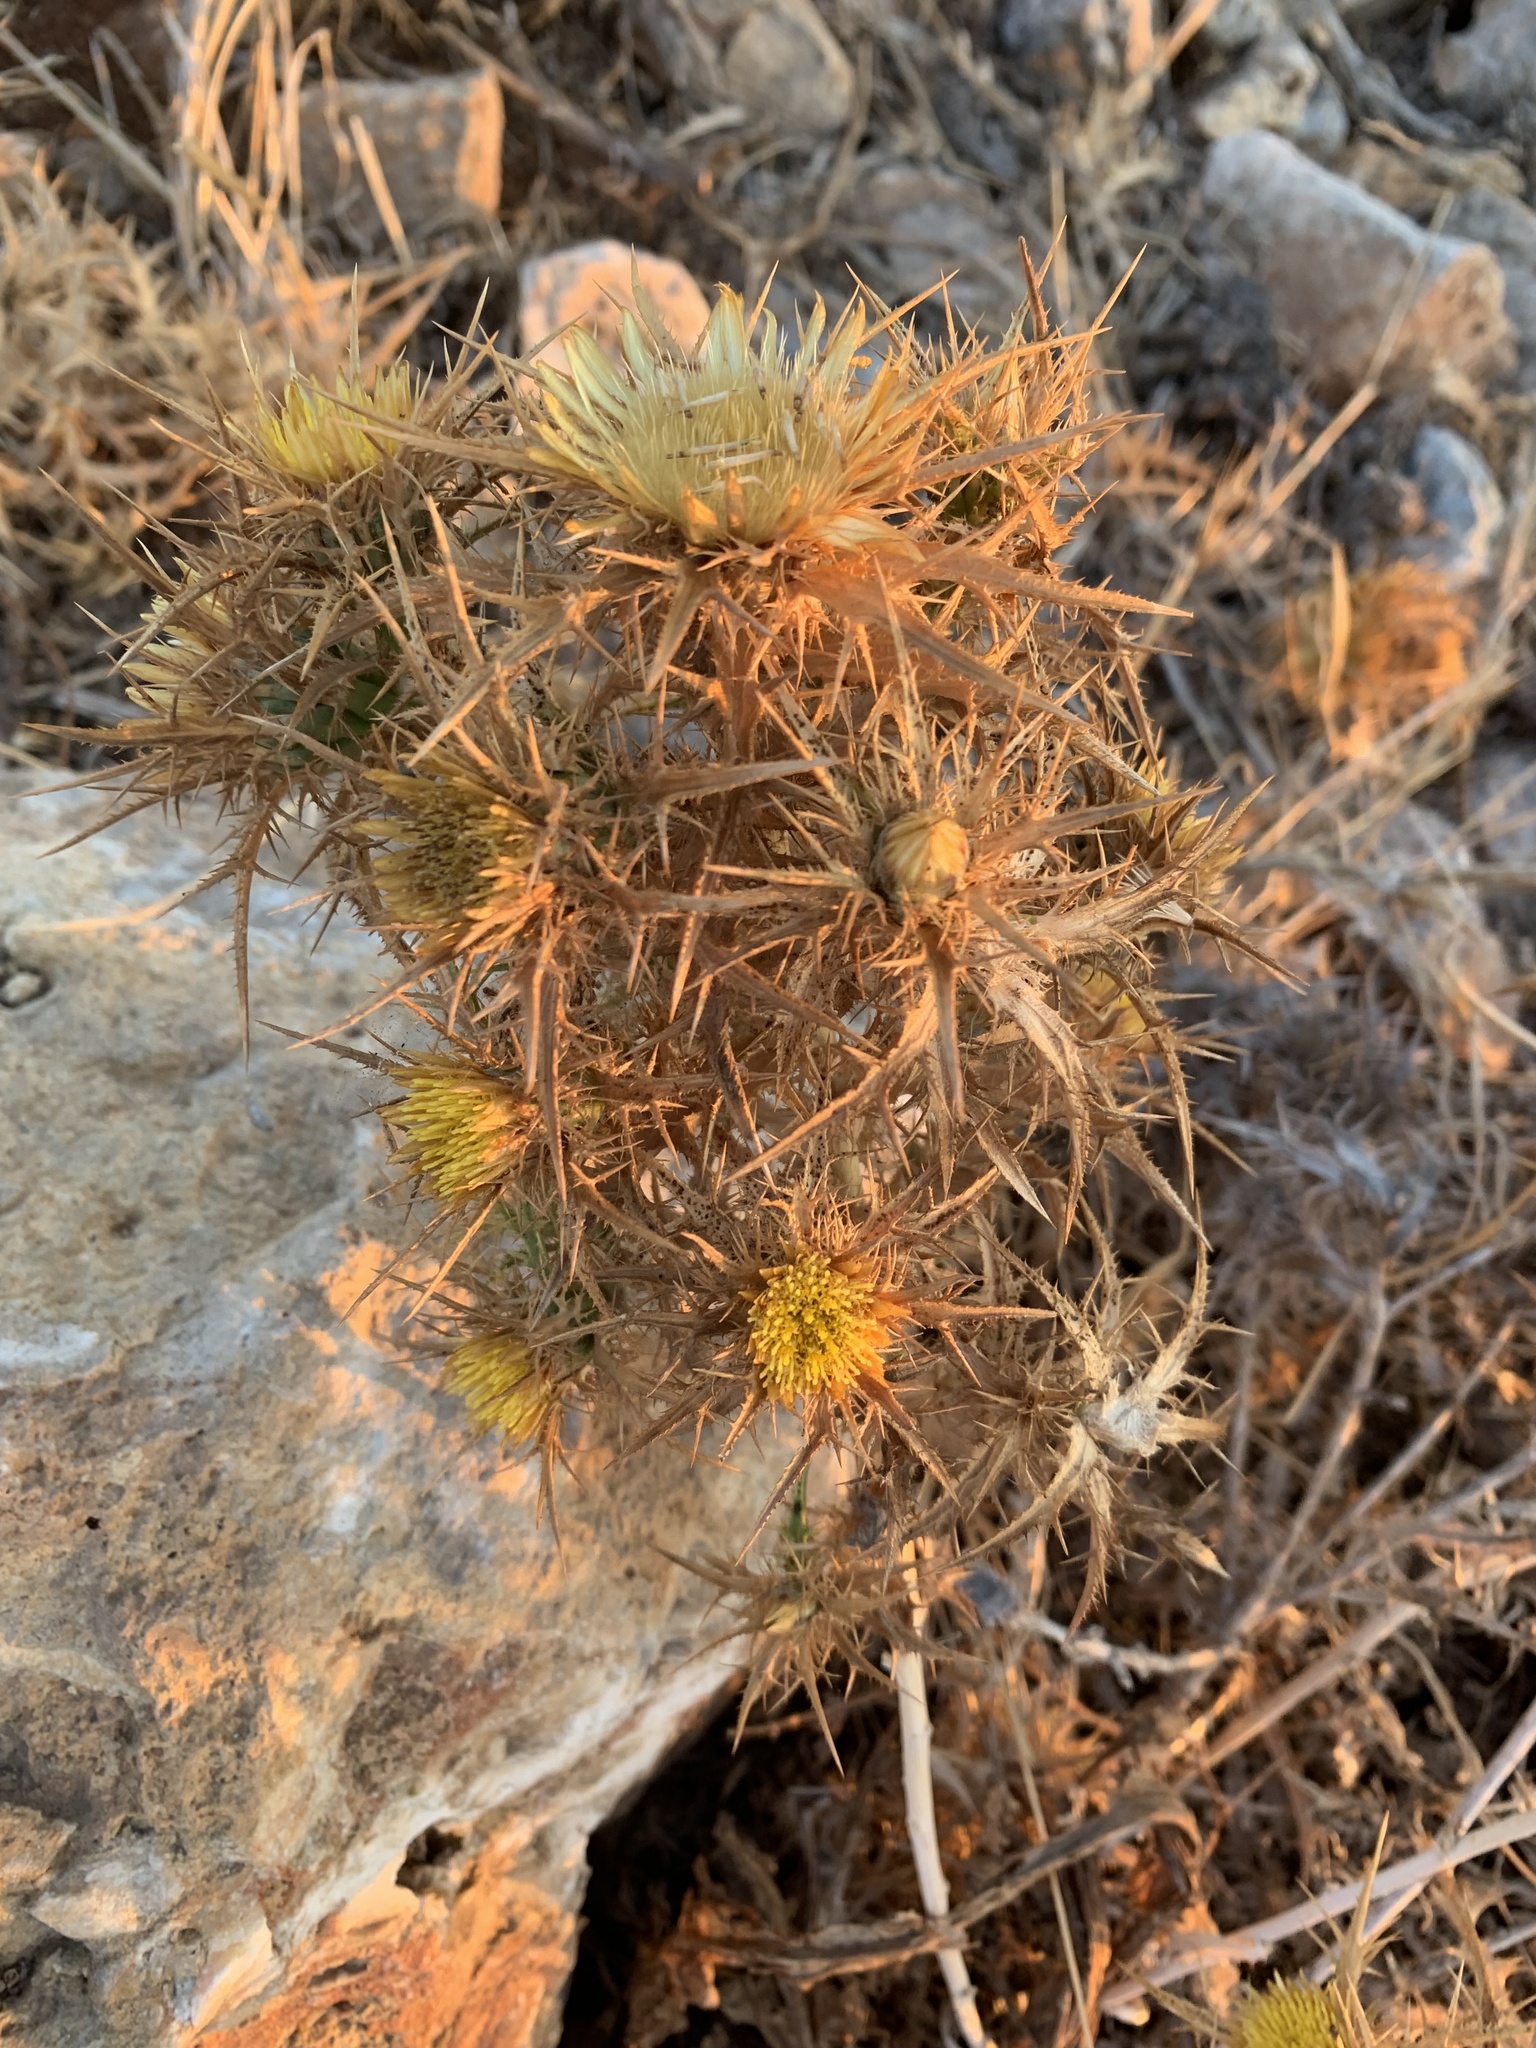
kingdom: Plantae
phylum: Tracheophyta
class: Magnoliopsida
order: Asterales
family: Asteraceae
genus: Carlina
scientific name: Carlina graeca
